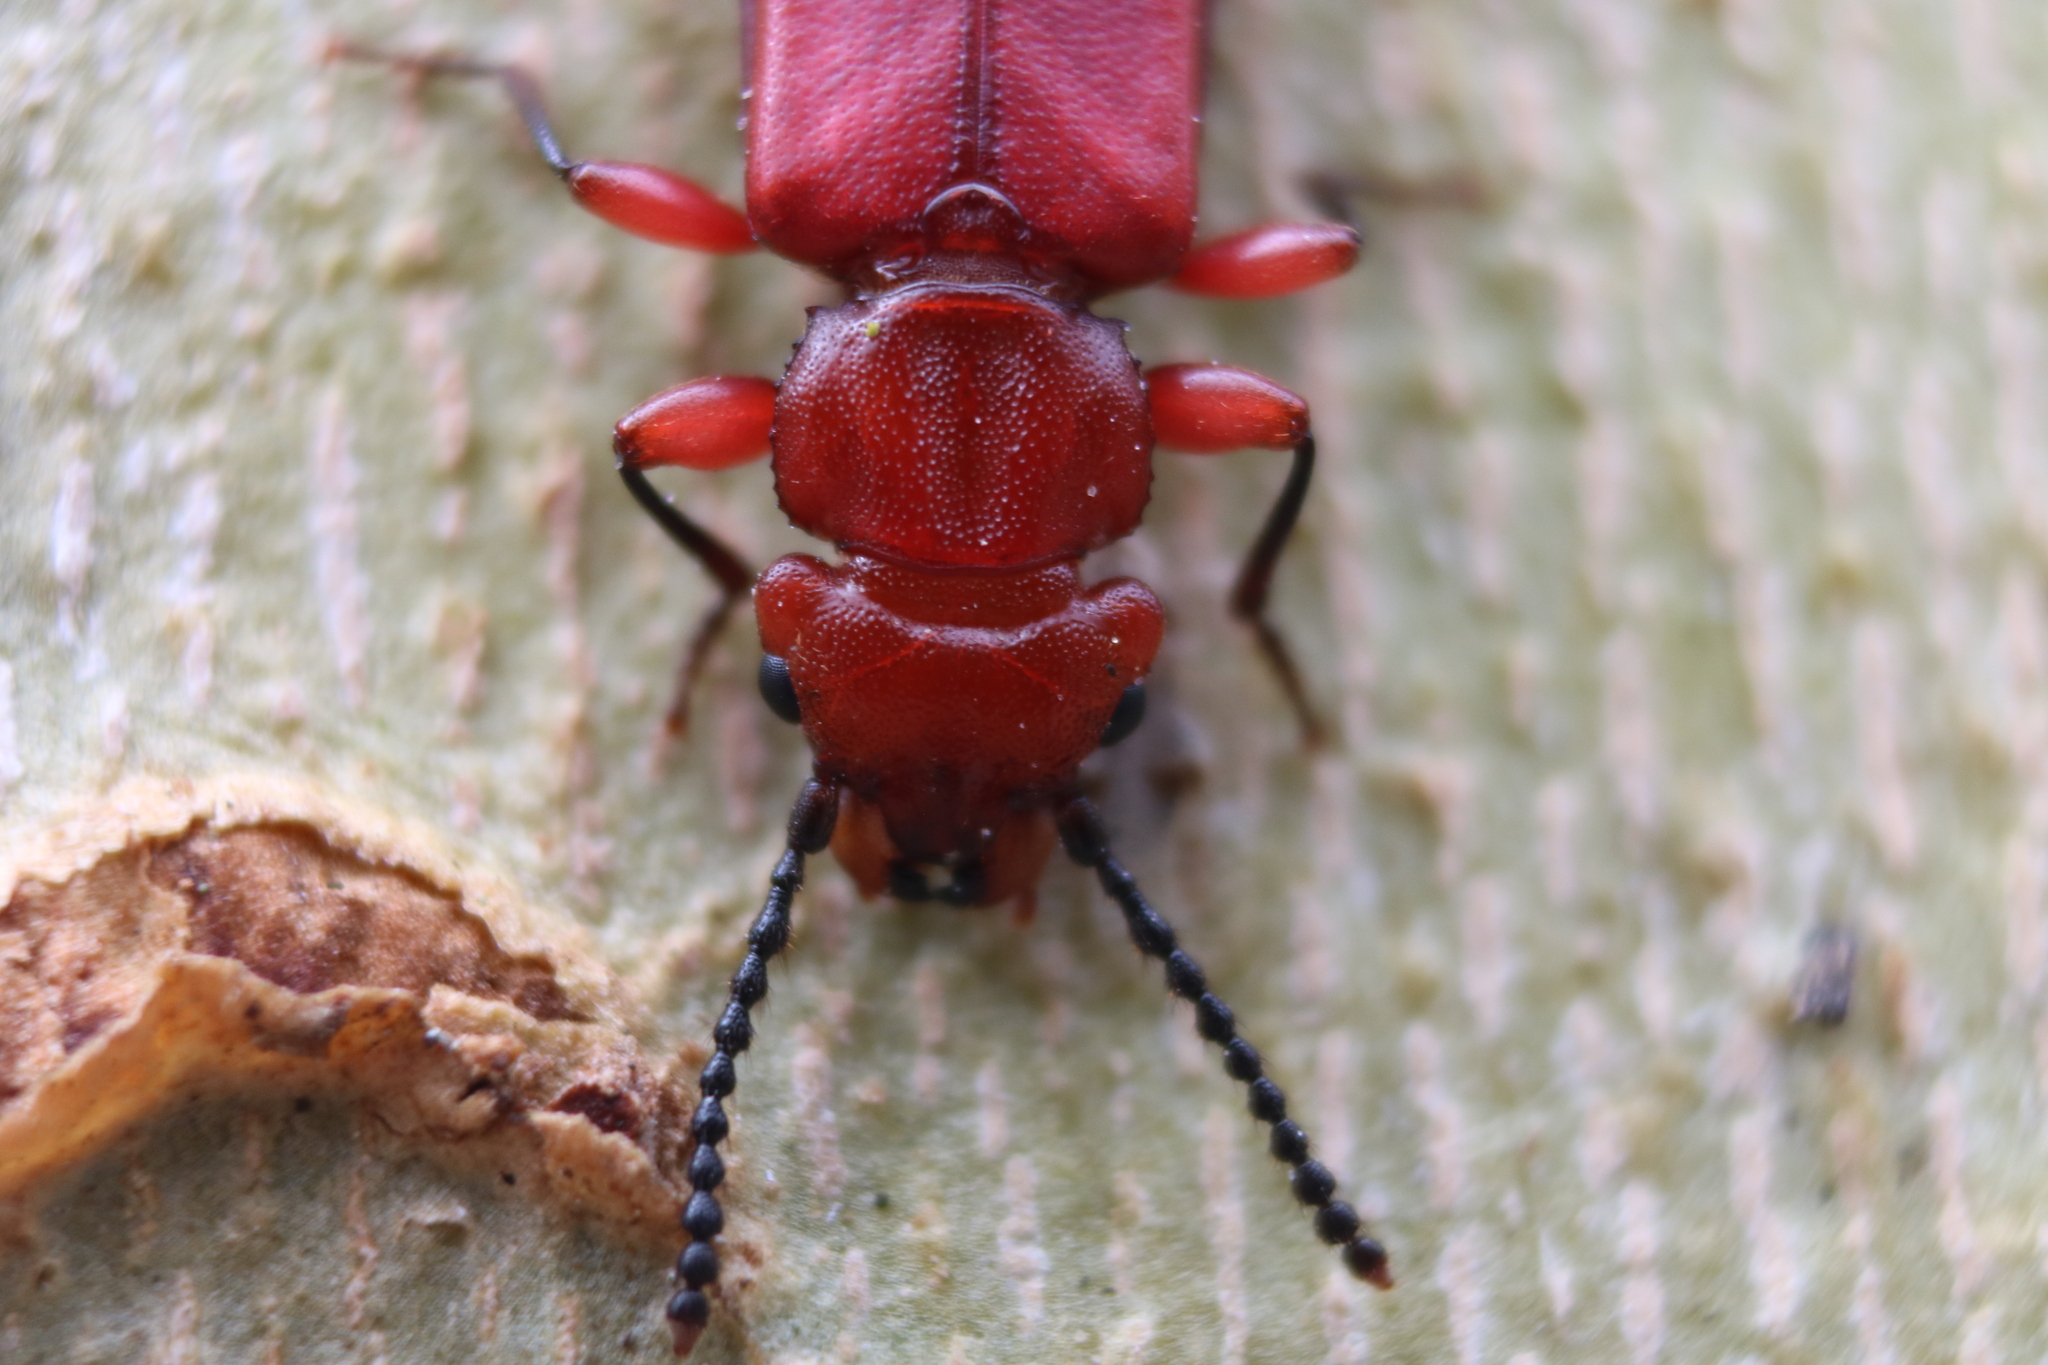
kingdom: Animalia
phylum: Arthropoda
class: Insecta
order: Coleoptera
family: Cucujidae
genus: Cucujus
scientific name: Cucujus clavipes
